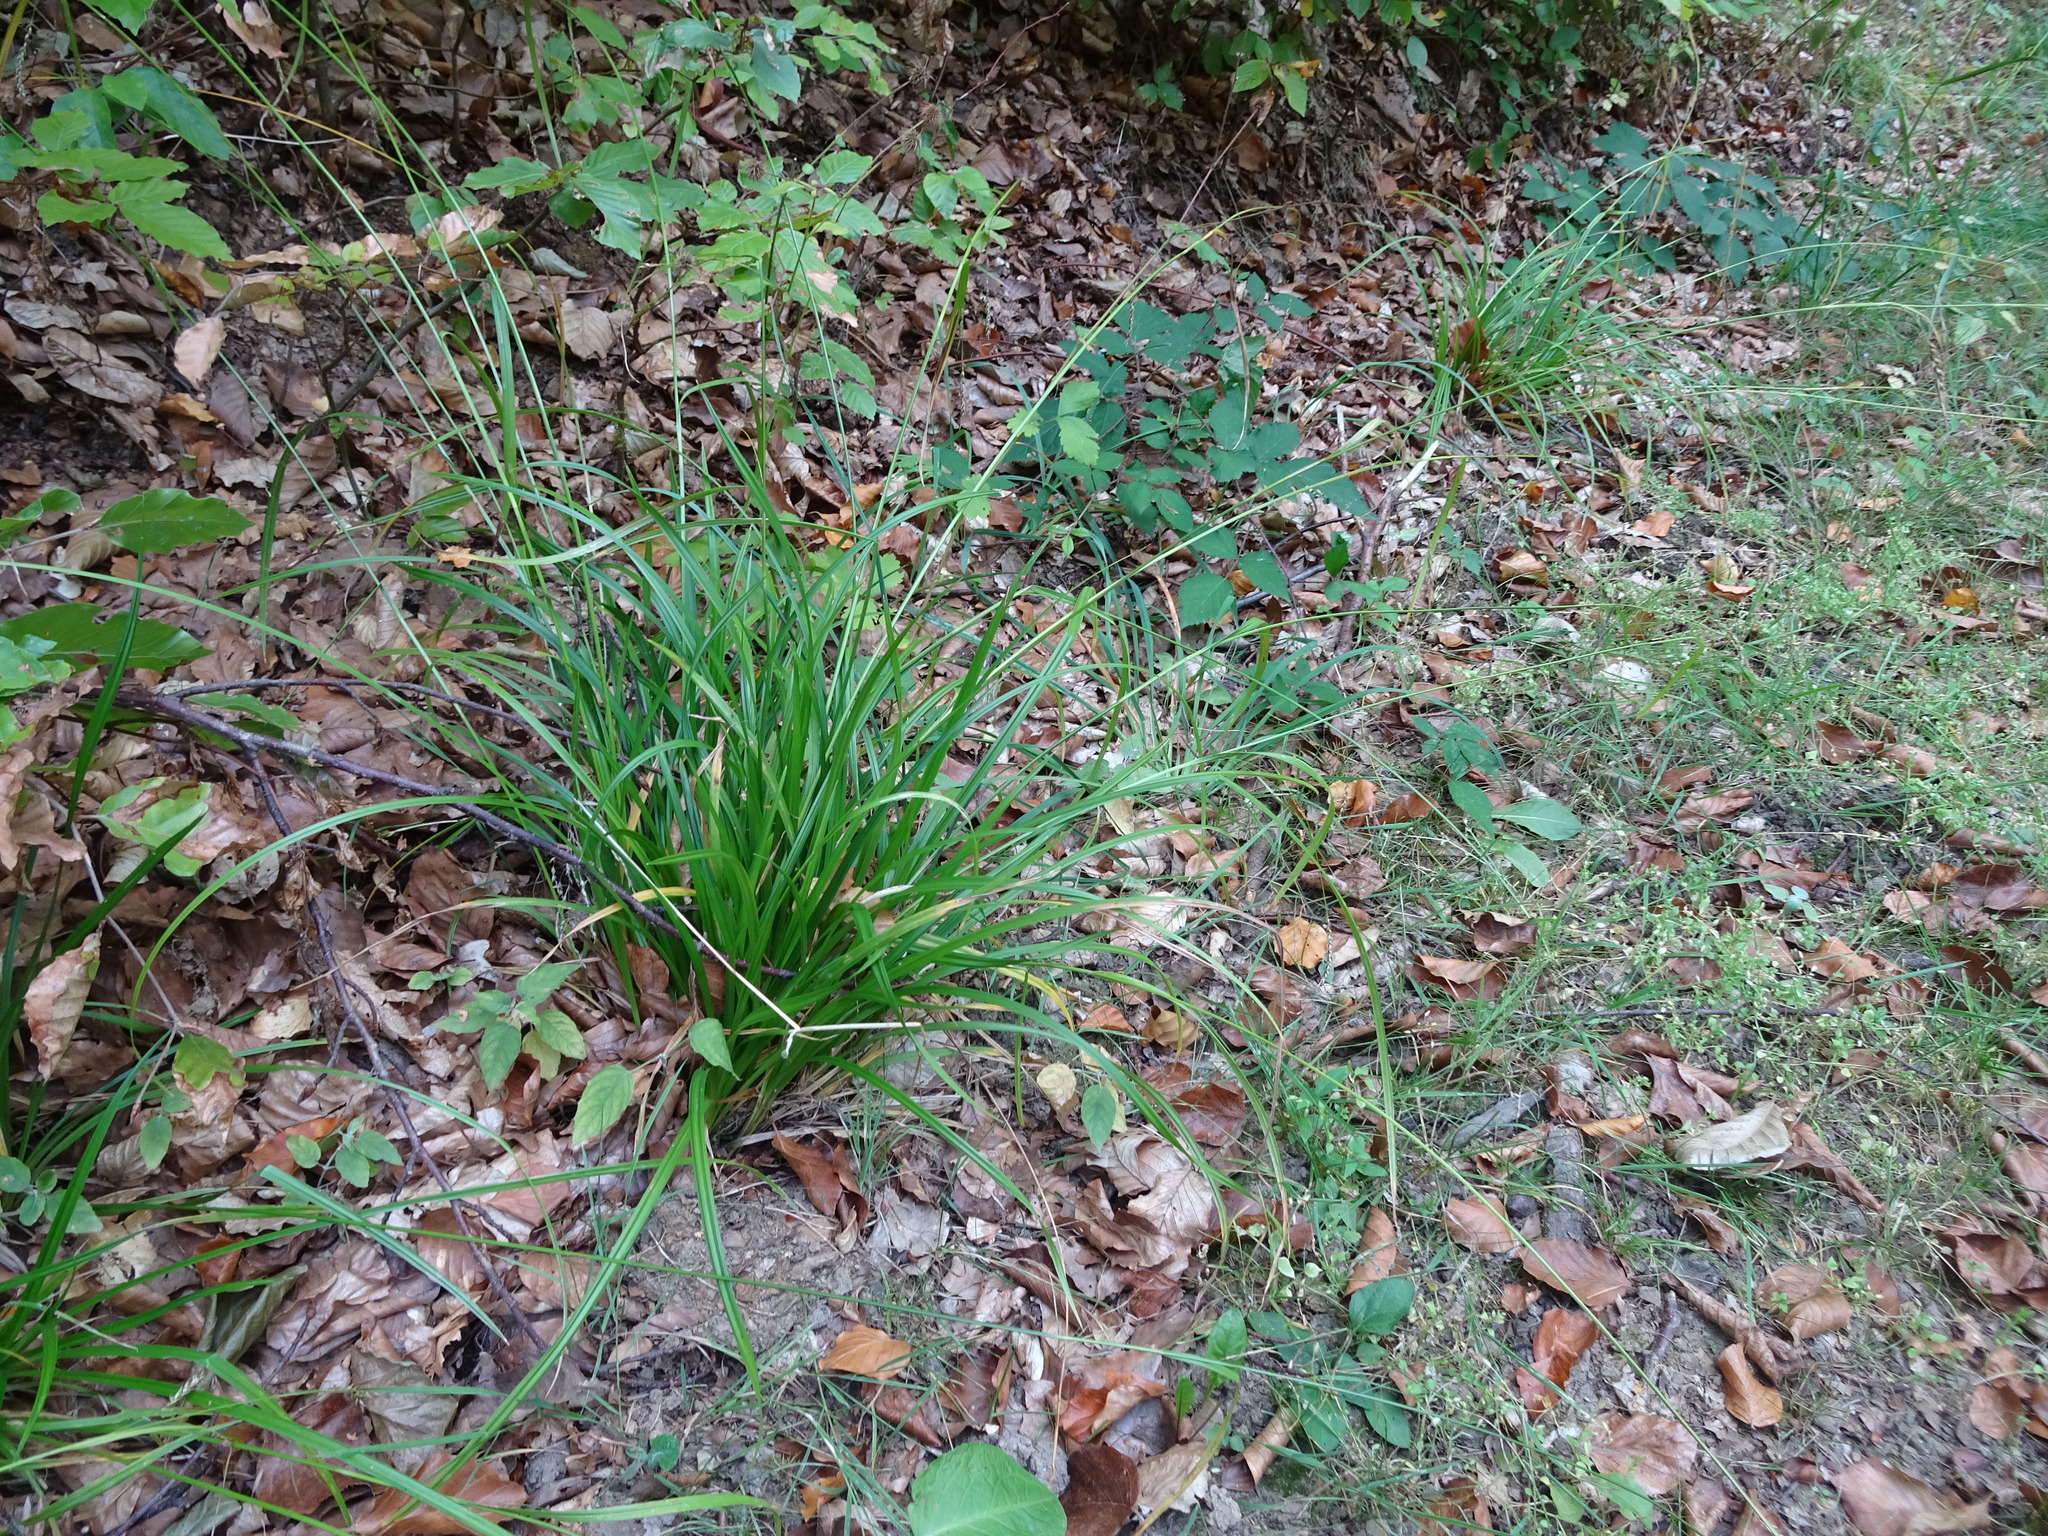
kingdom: Plantae
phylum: Tracheophyta
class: Liliopsida
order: Poales
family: Cyperaceae
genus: Carex
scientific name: Carex sylvatica
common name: Wood-sedge
